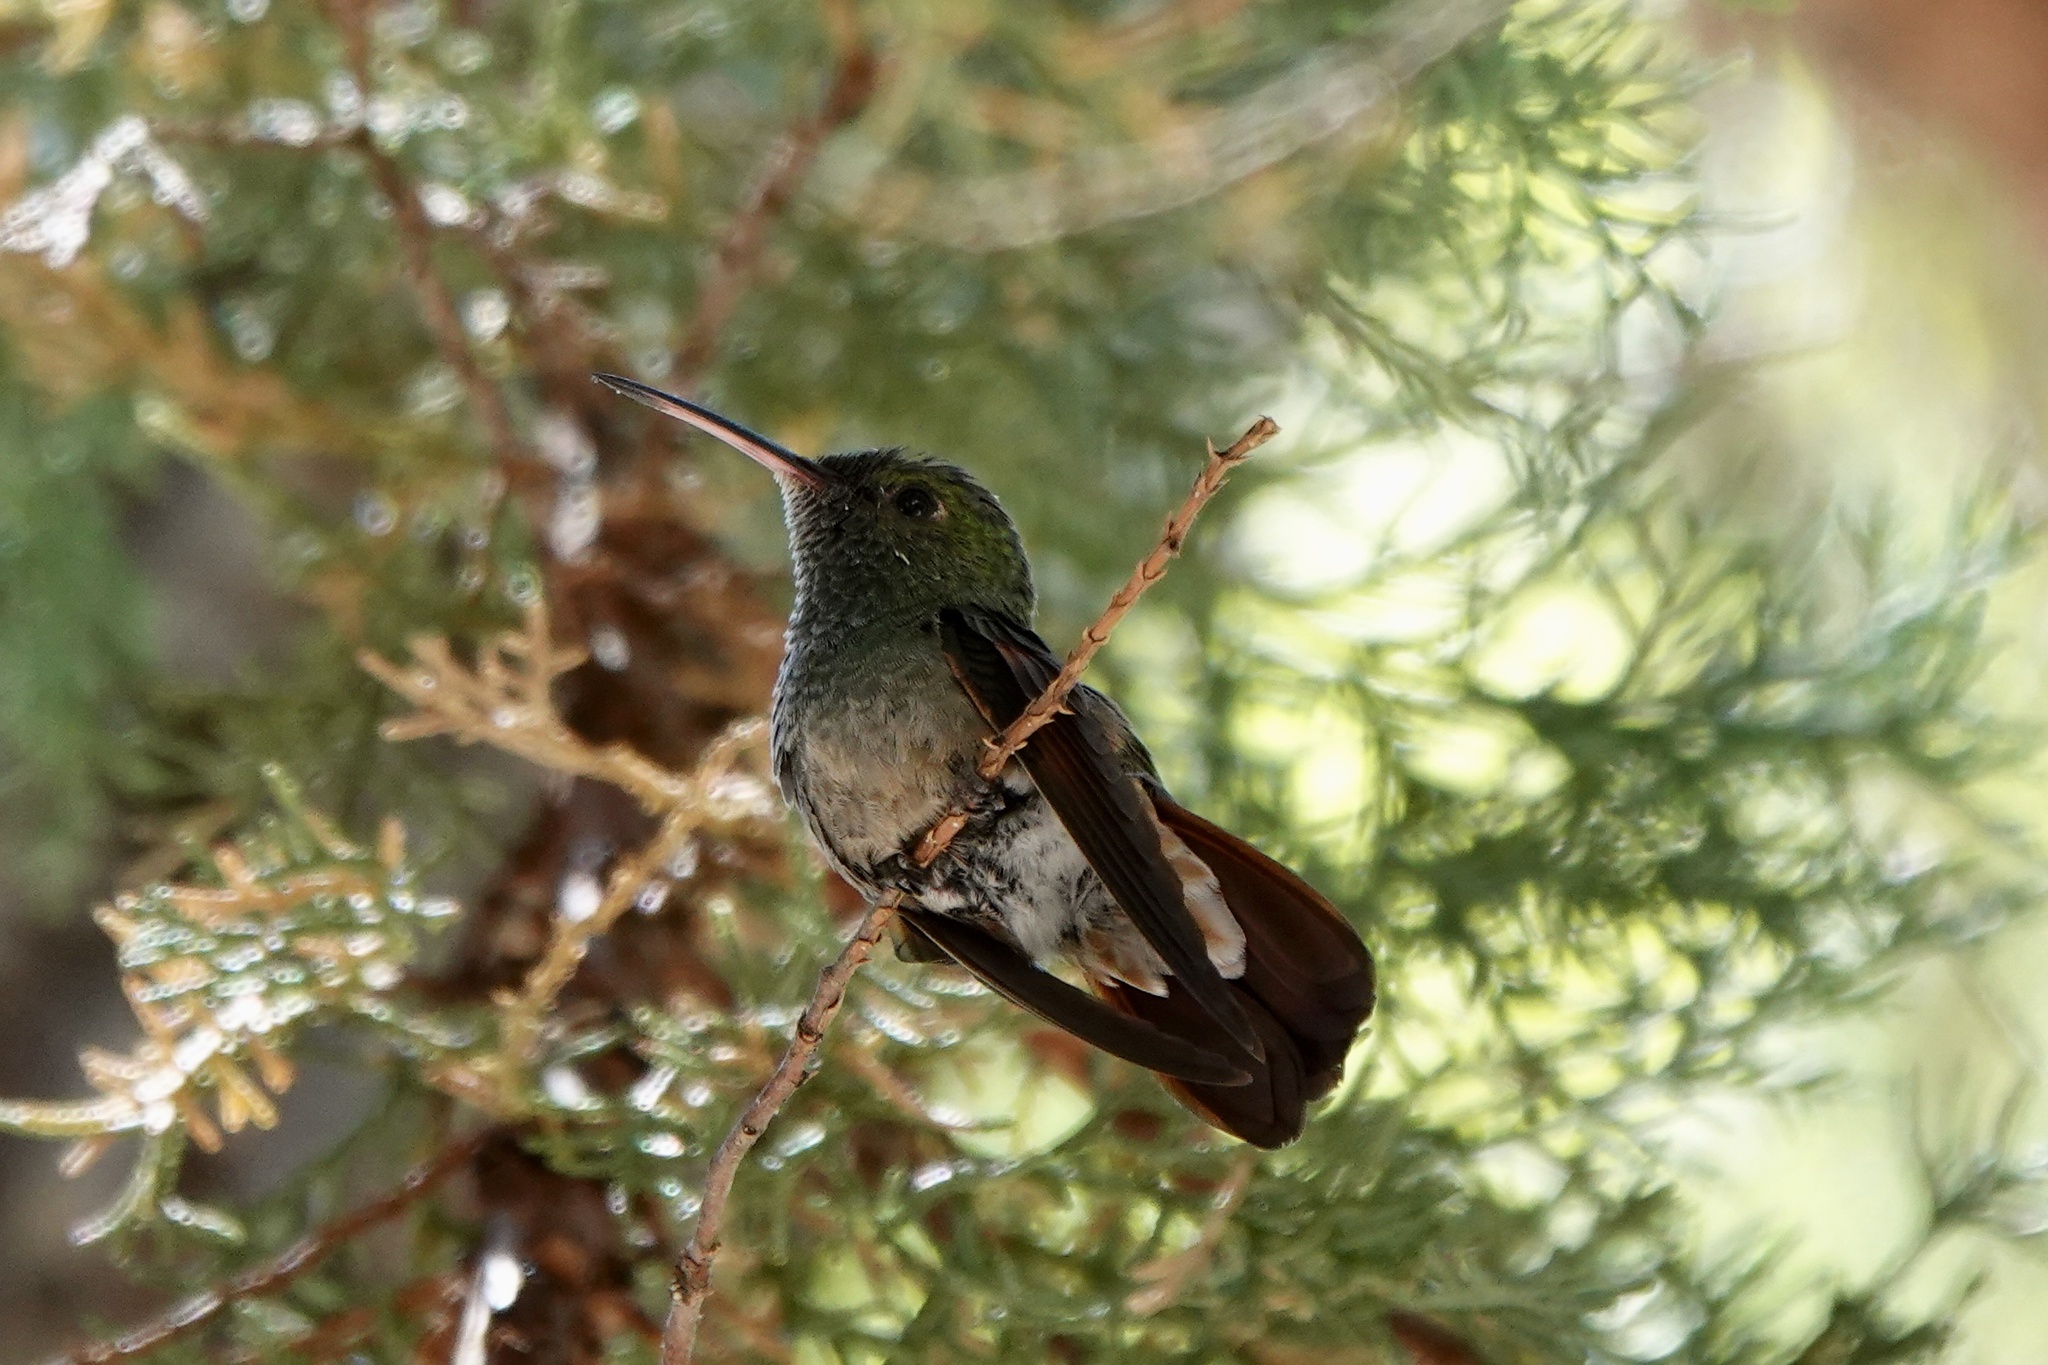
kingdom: Animalia
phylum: Chordata
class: Aves
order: Apodiformes
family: Trochilidae
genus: Saucerottia
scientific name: Saucerottia beryllina
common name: Berylline hummingbird
